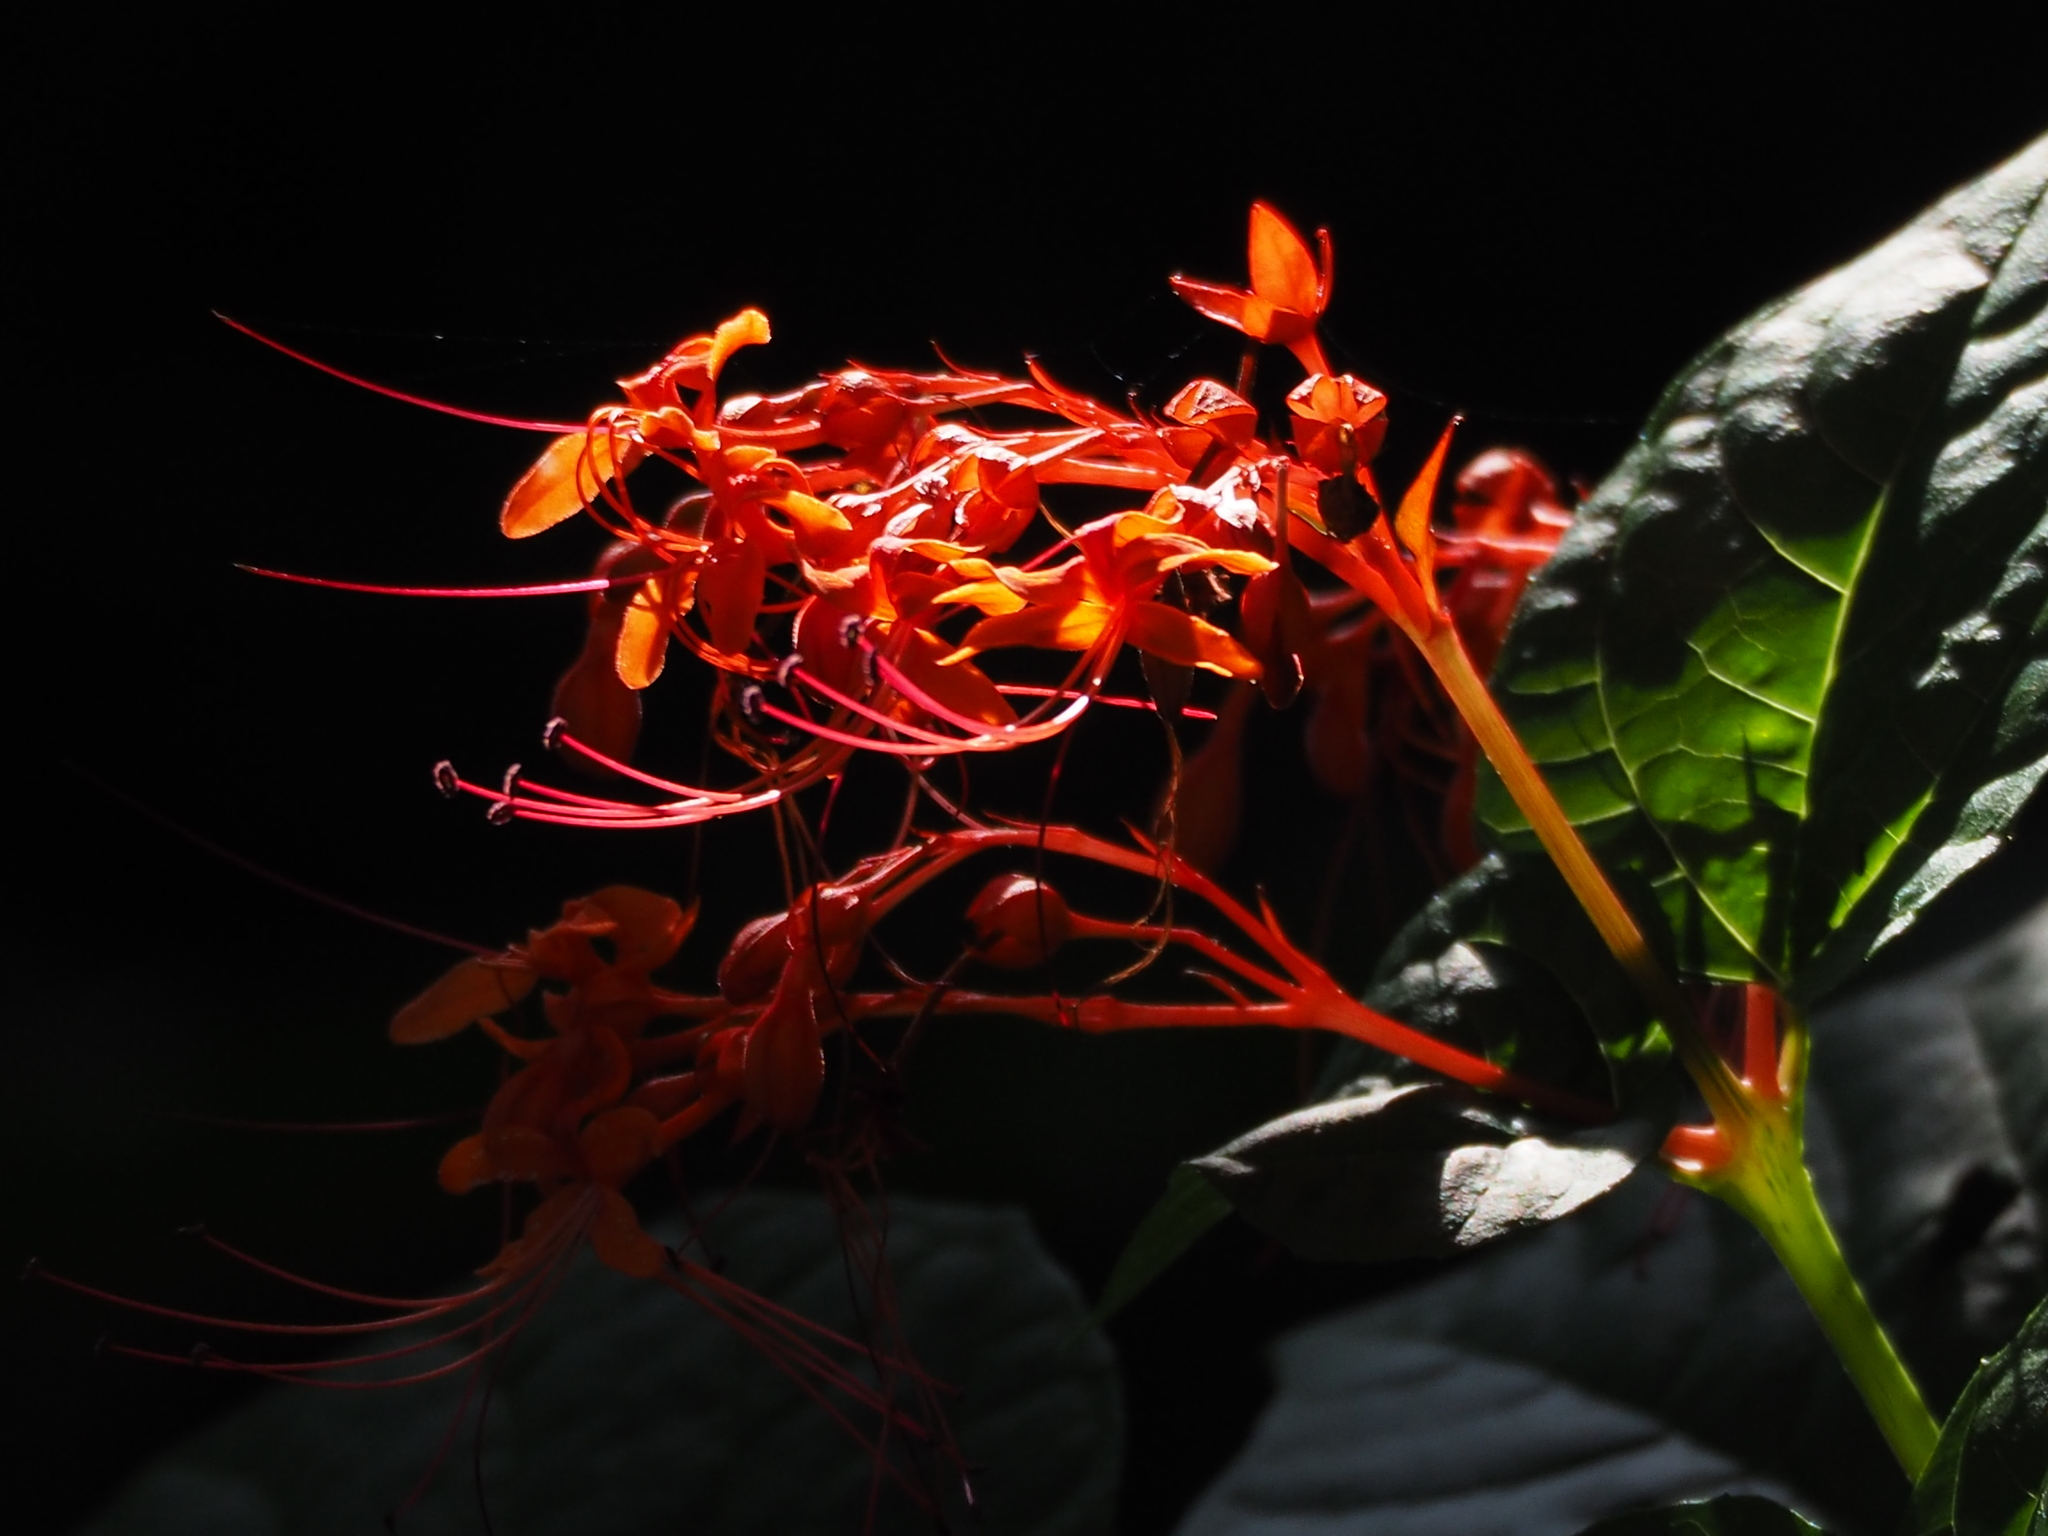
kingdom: Plantae
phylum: Tracheophyta
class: Magnoliopsida
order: Lamiales
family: Lamiaceae
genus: Clerodendrum
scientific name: Clerodendrum japonicum
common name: Japanese glorybower
